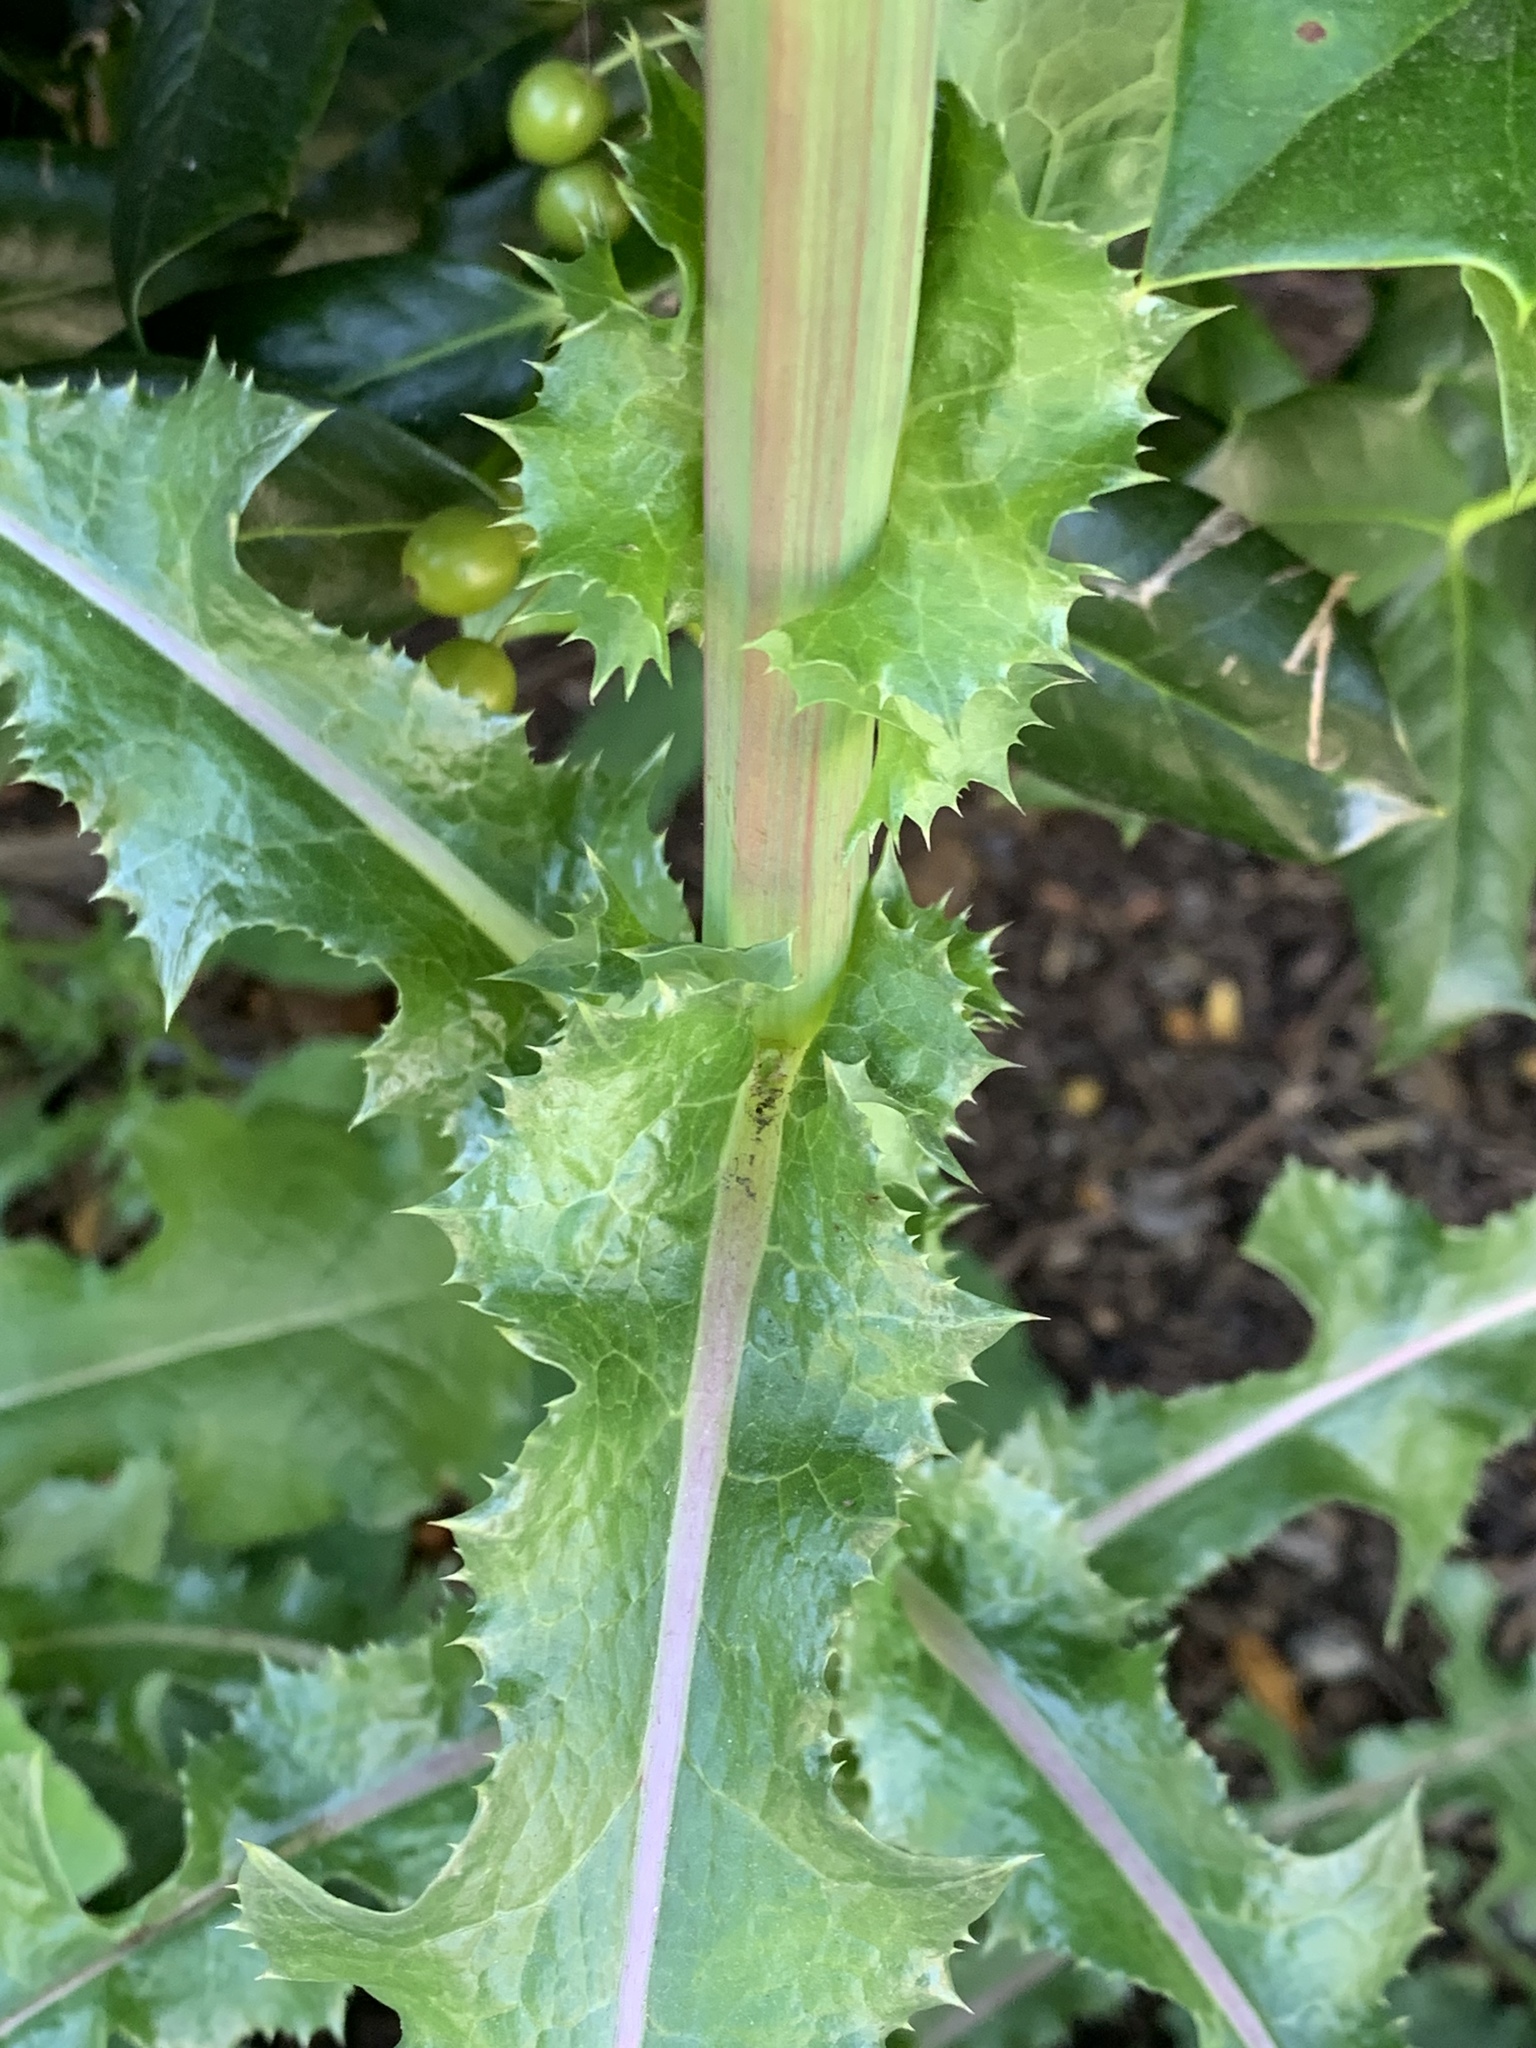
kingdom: Plantae
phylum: Tracheophyta
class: Magnoliopsida
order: Asterales
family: Asteraceae
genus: Sonchus
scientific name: Sonchus asper
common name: Prickly sow-thistle
